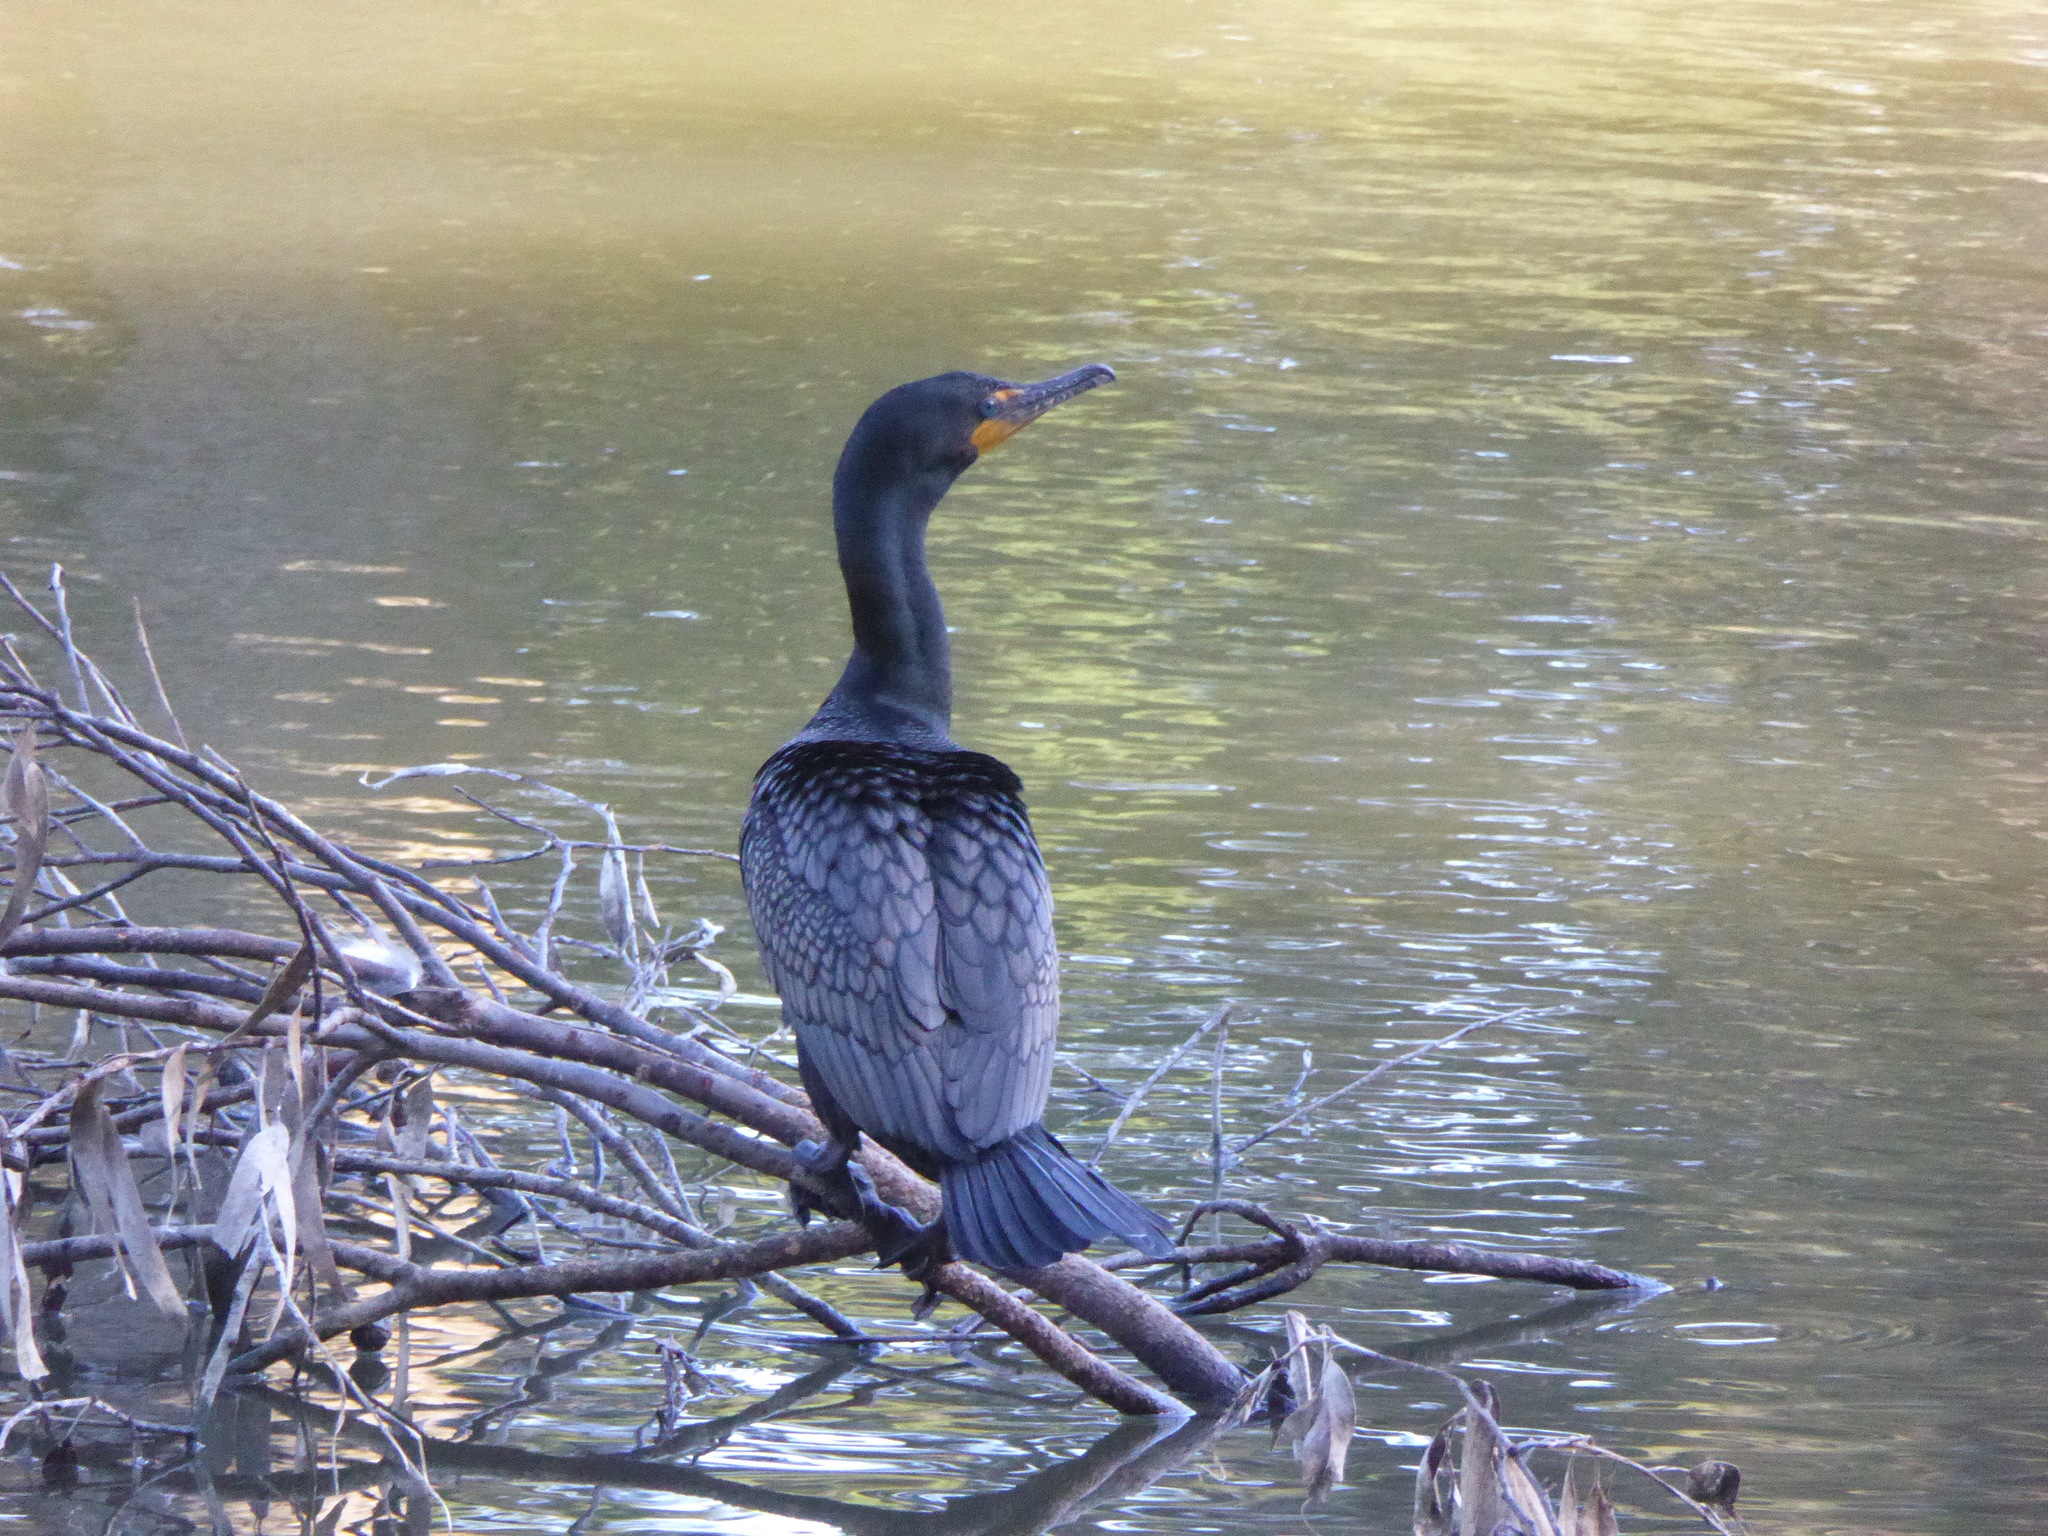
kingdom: Animalia
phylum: Chordata
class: Aves
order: Suliformes
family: Phalacrocoracidae
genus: Phalacrocorax
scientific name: Phalacrocorax auritus
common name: Double-crested cormorant
